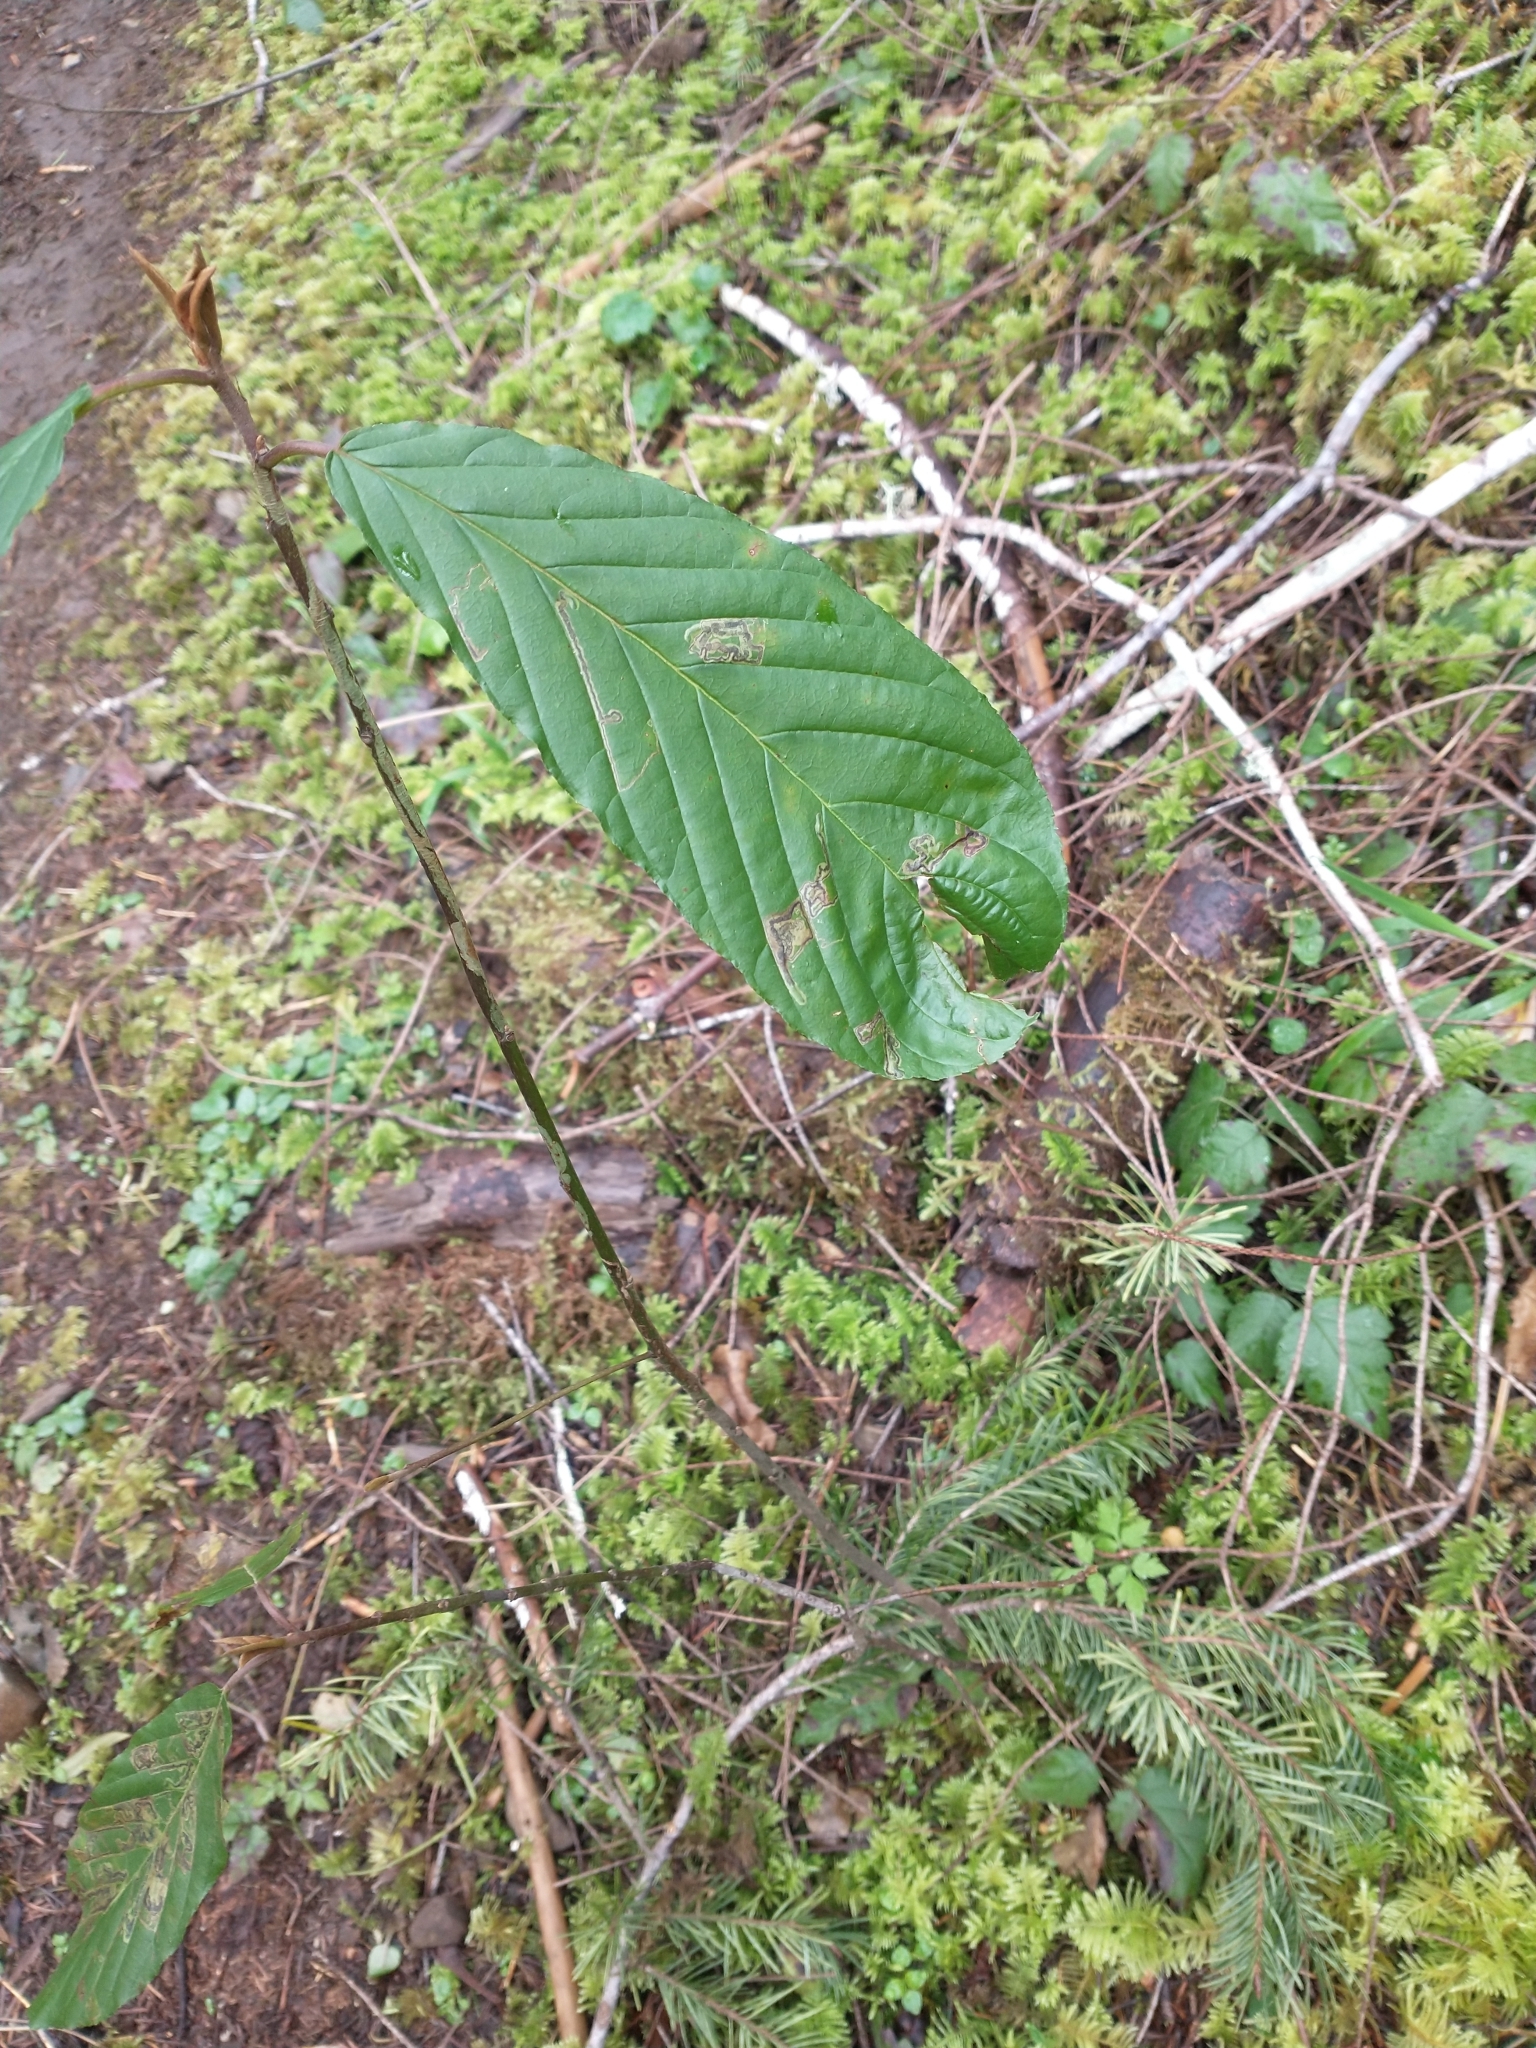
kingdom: Plantae
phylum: Tracheophyta
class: Magnoliopsida
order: Rosales
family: Rhamnaceae
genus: Frangula
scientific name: Frangula purshiana
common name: Cascara buckthorn
